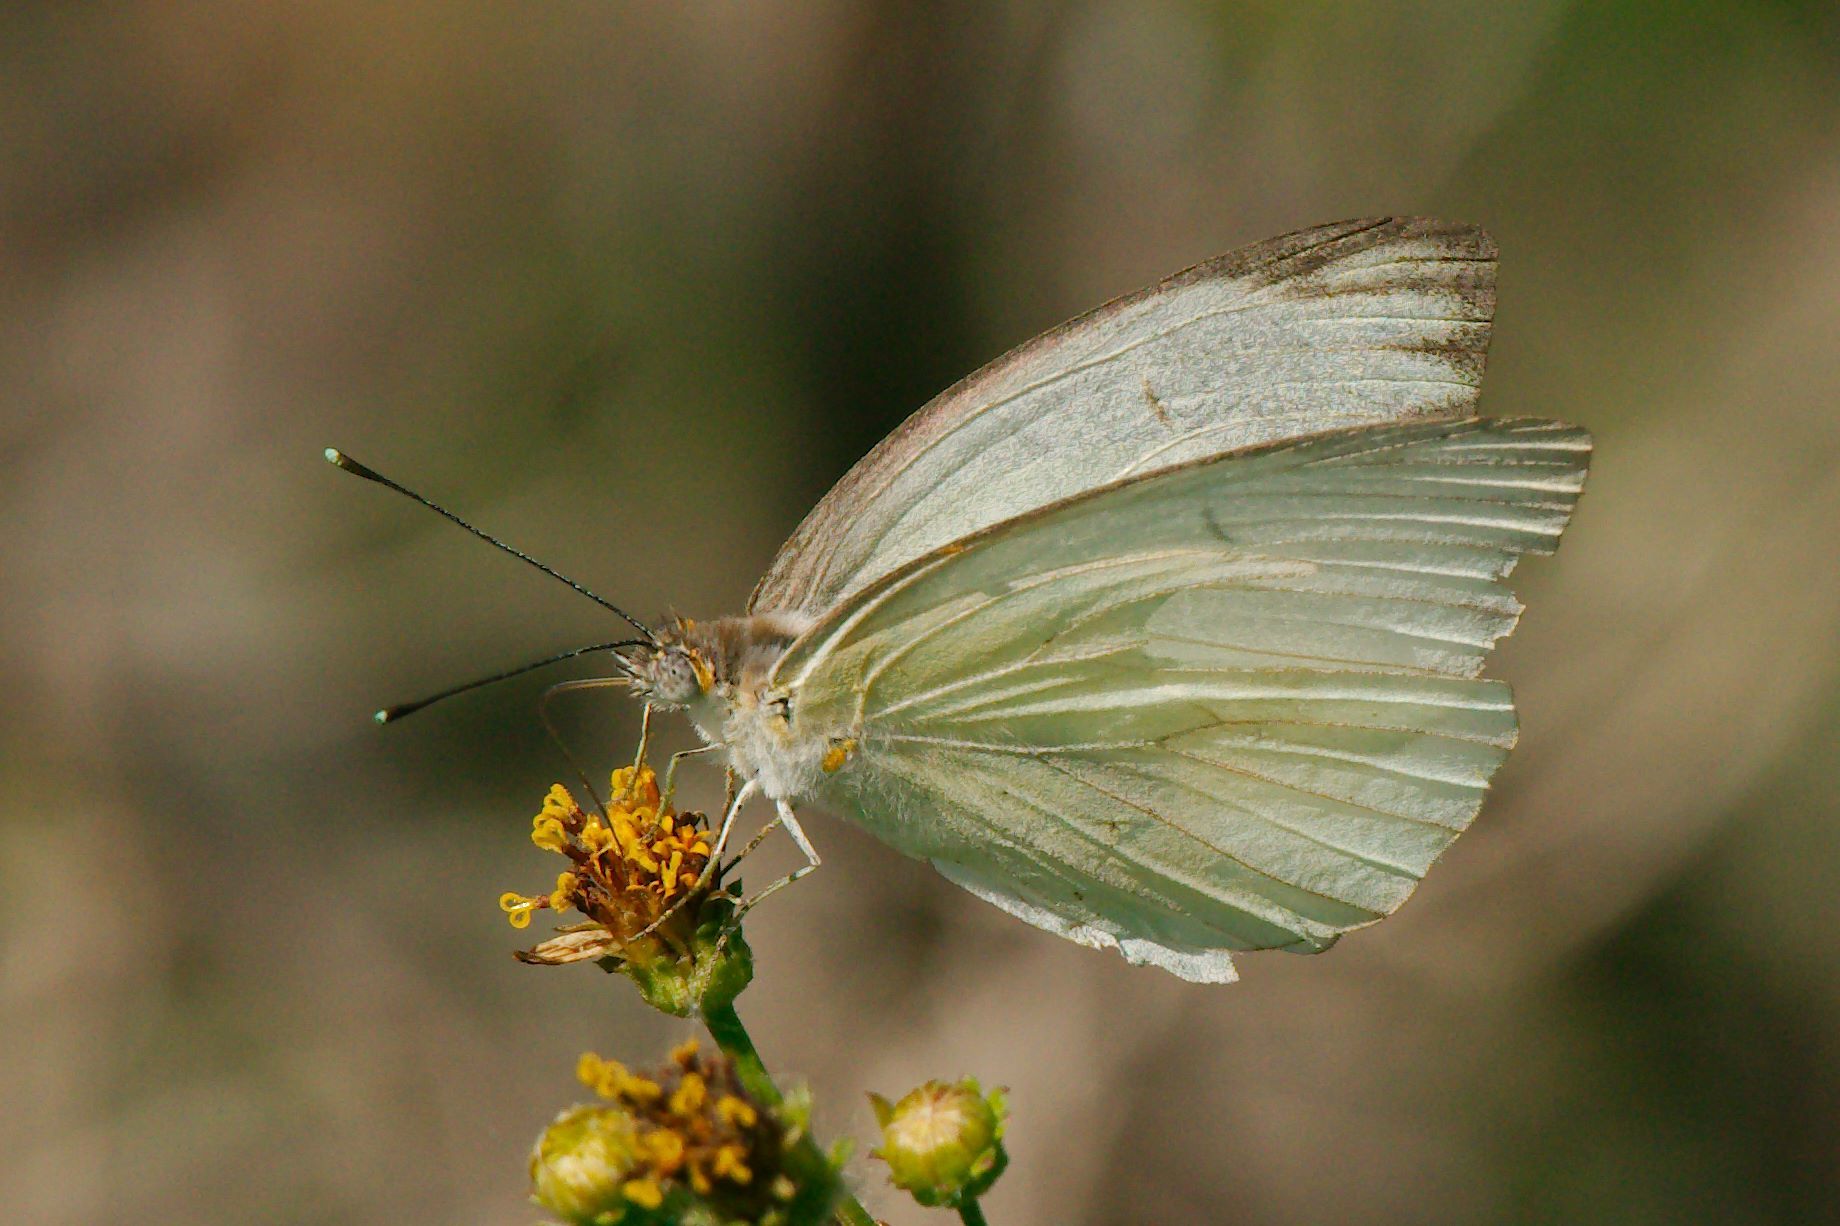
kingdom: Animalia
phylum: Arthropoda
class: Insecta
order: Lepidoptera
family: Pieridae
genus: Ascia
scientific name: Ascia monuste
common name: Great southern white
